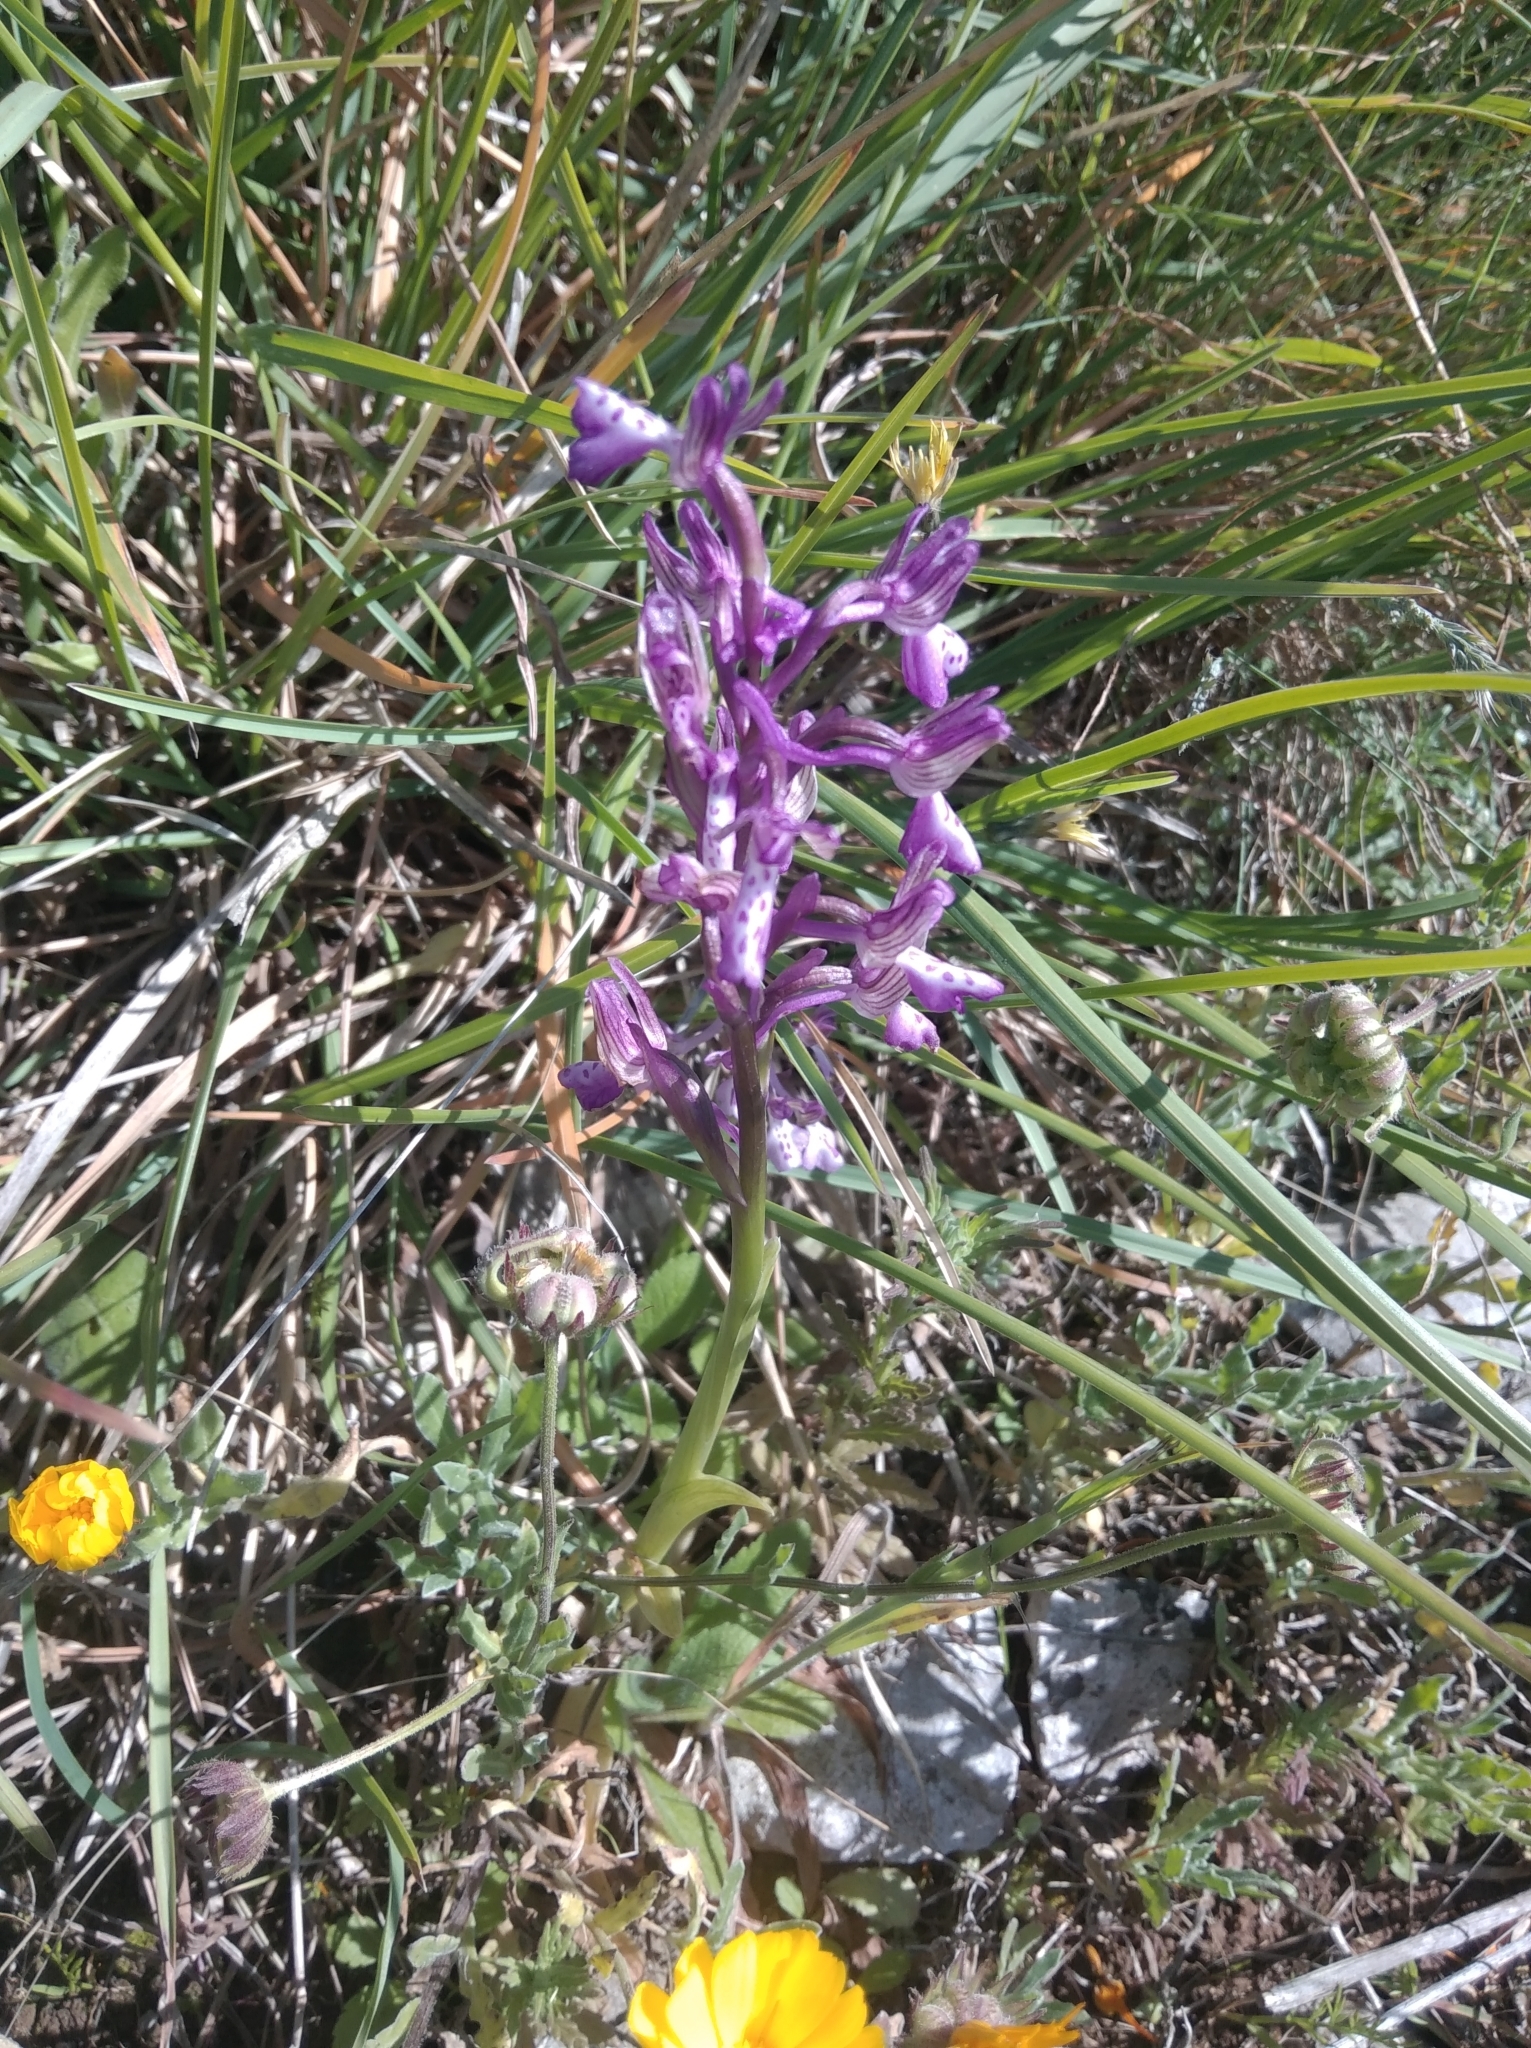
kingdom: Plantae
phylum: Tracheophyta
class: Liliopsida
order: Asparagales
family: Orchidaceae
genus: Anacamptis
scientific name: Anacamptis morio
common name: Green-winged orchid
